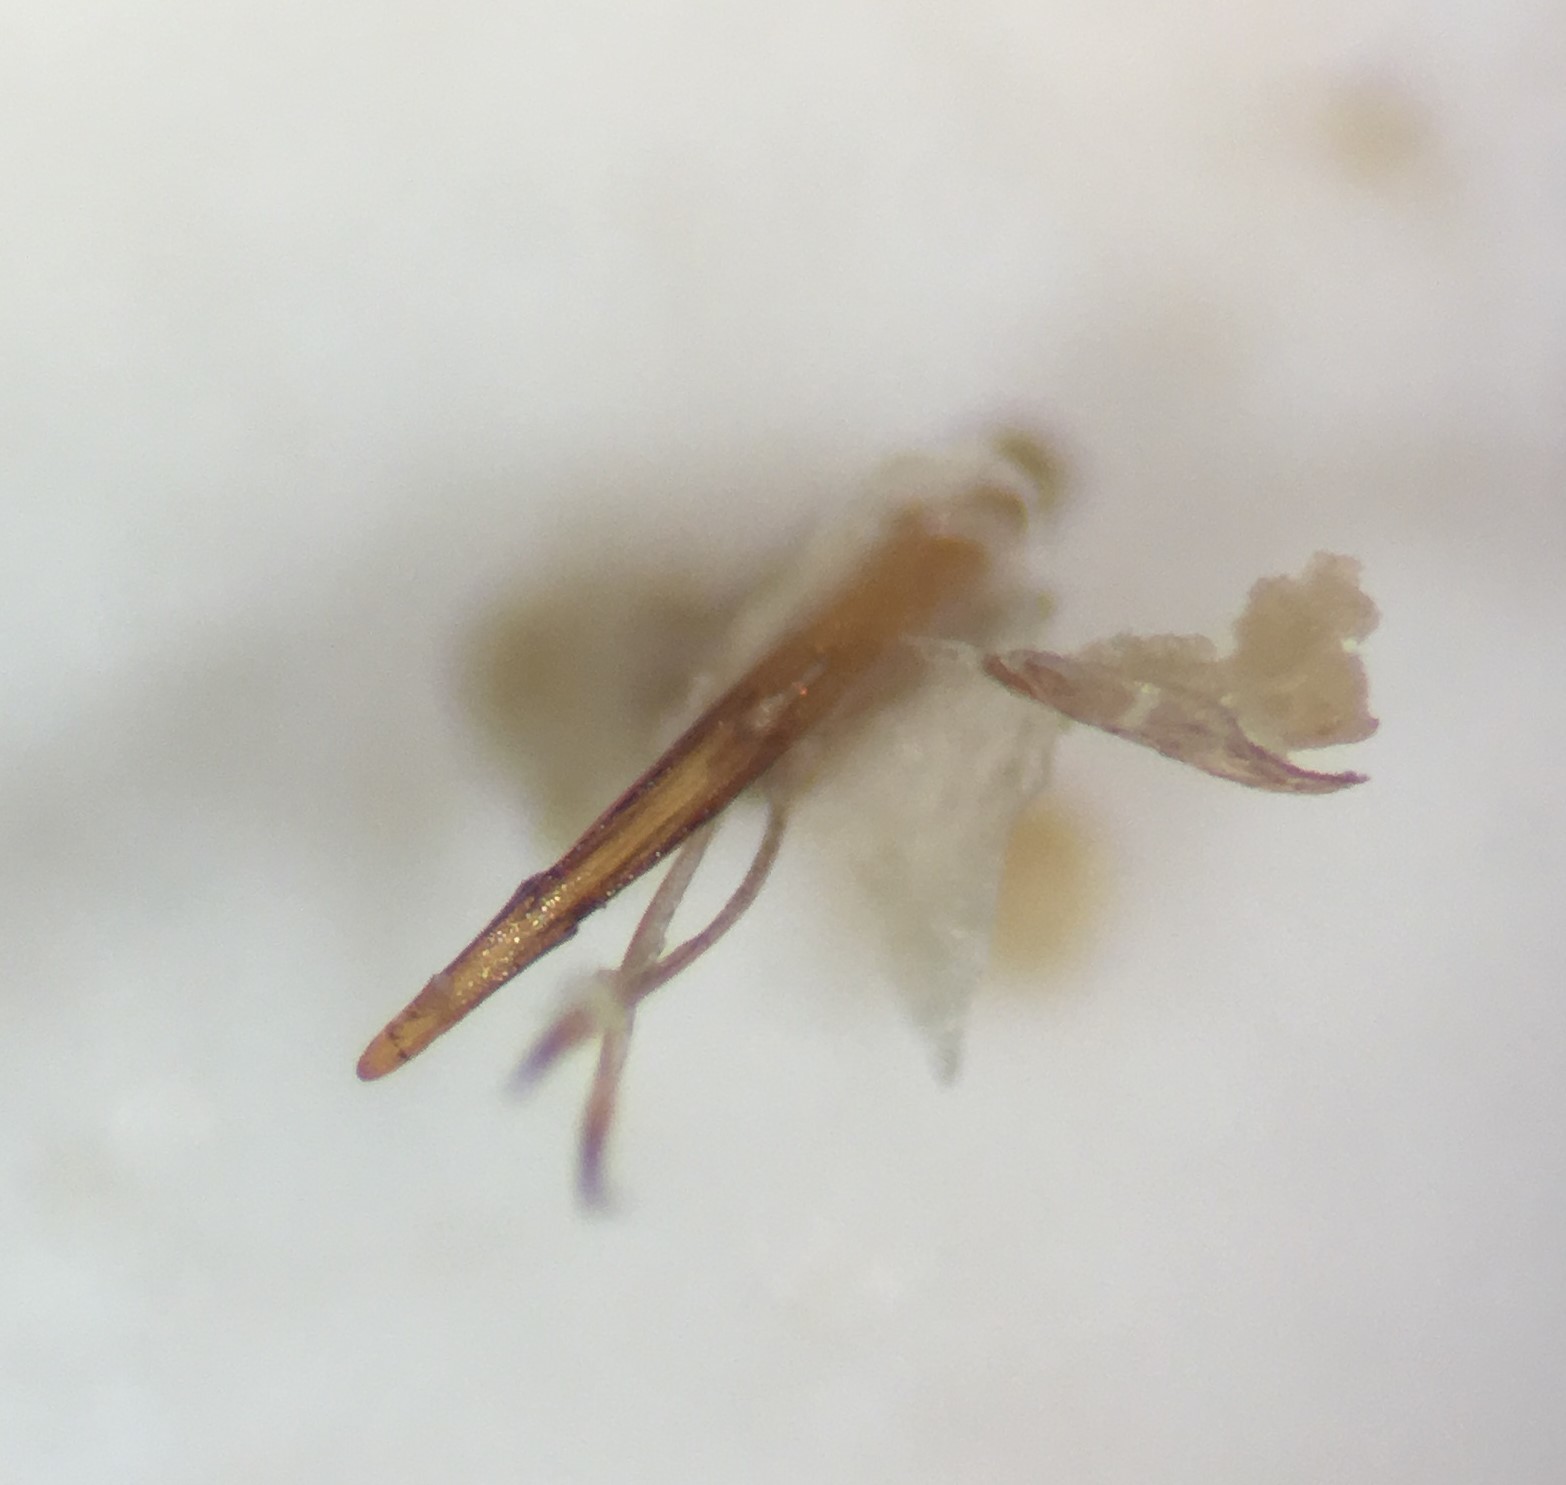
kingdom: Animalia
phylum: Arthropoda
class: Insecta
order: Coleoptera
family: Dytiscidae
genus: Celina
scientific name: Celina imitatrix
